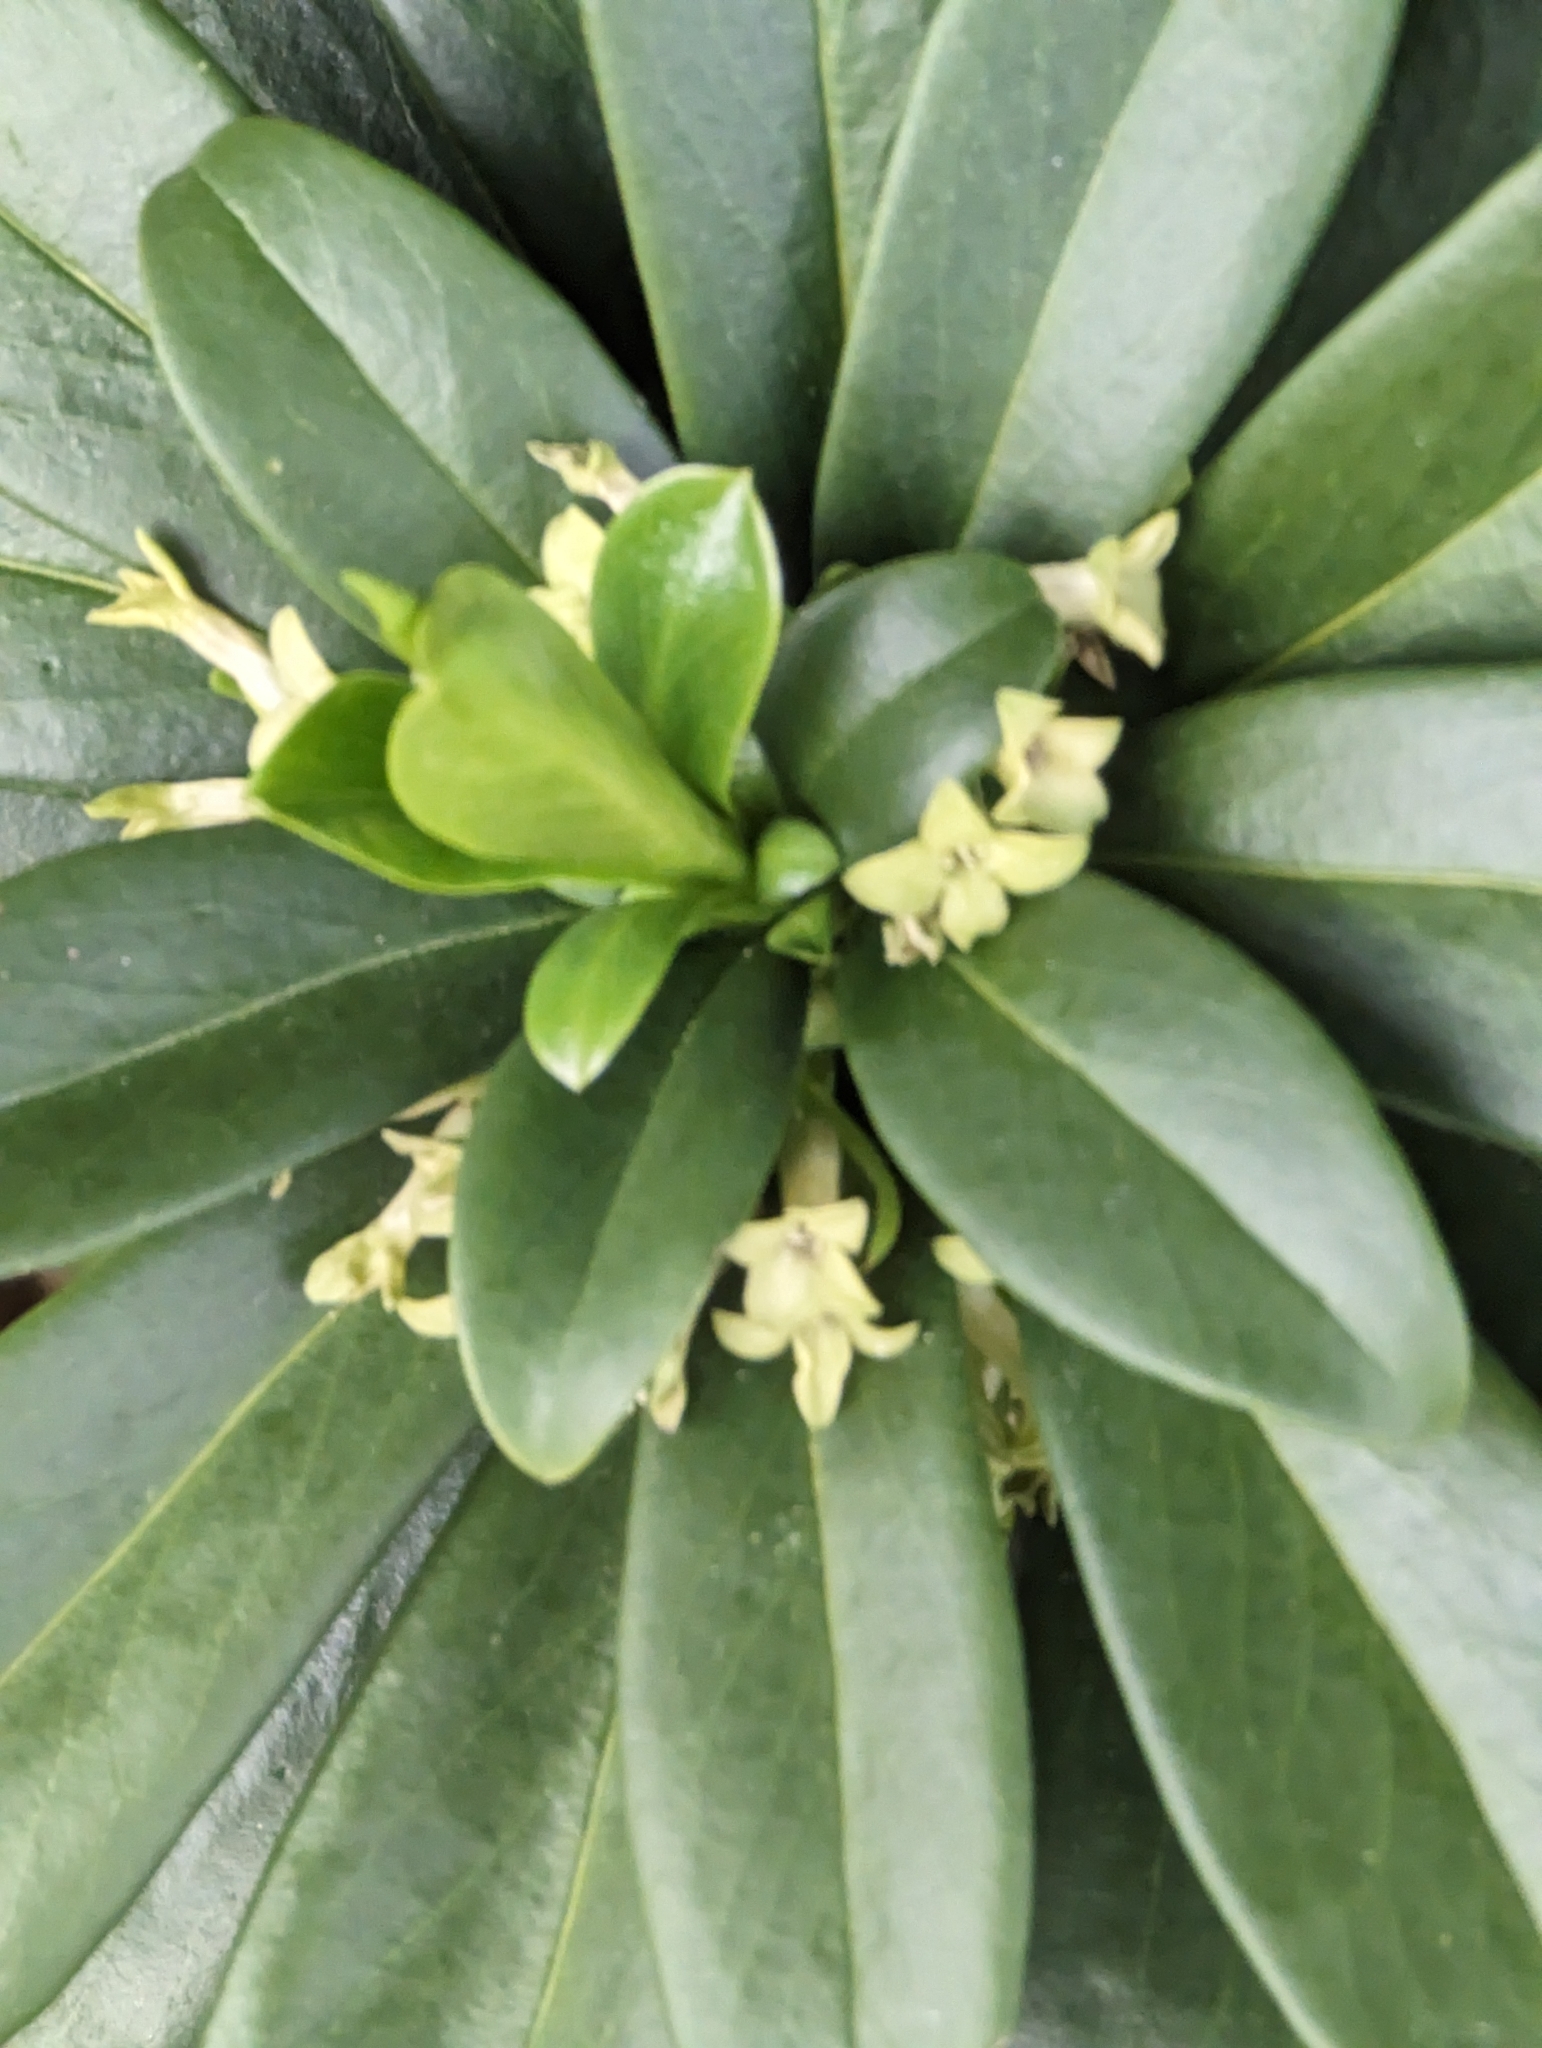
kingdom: Plantae
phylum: Tracheophyta
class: Magnoliopsida
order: Malvales
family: Thymelaeaceae
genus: Daphne
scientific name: Daphne laureola
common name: Spurge-laurel
